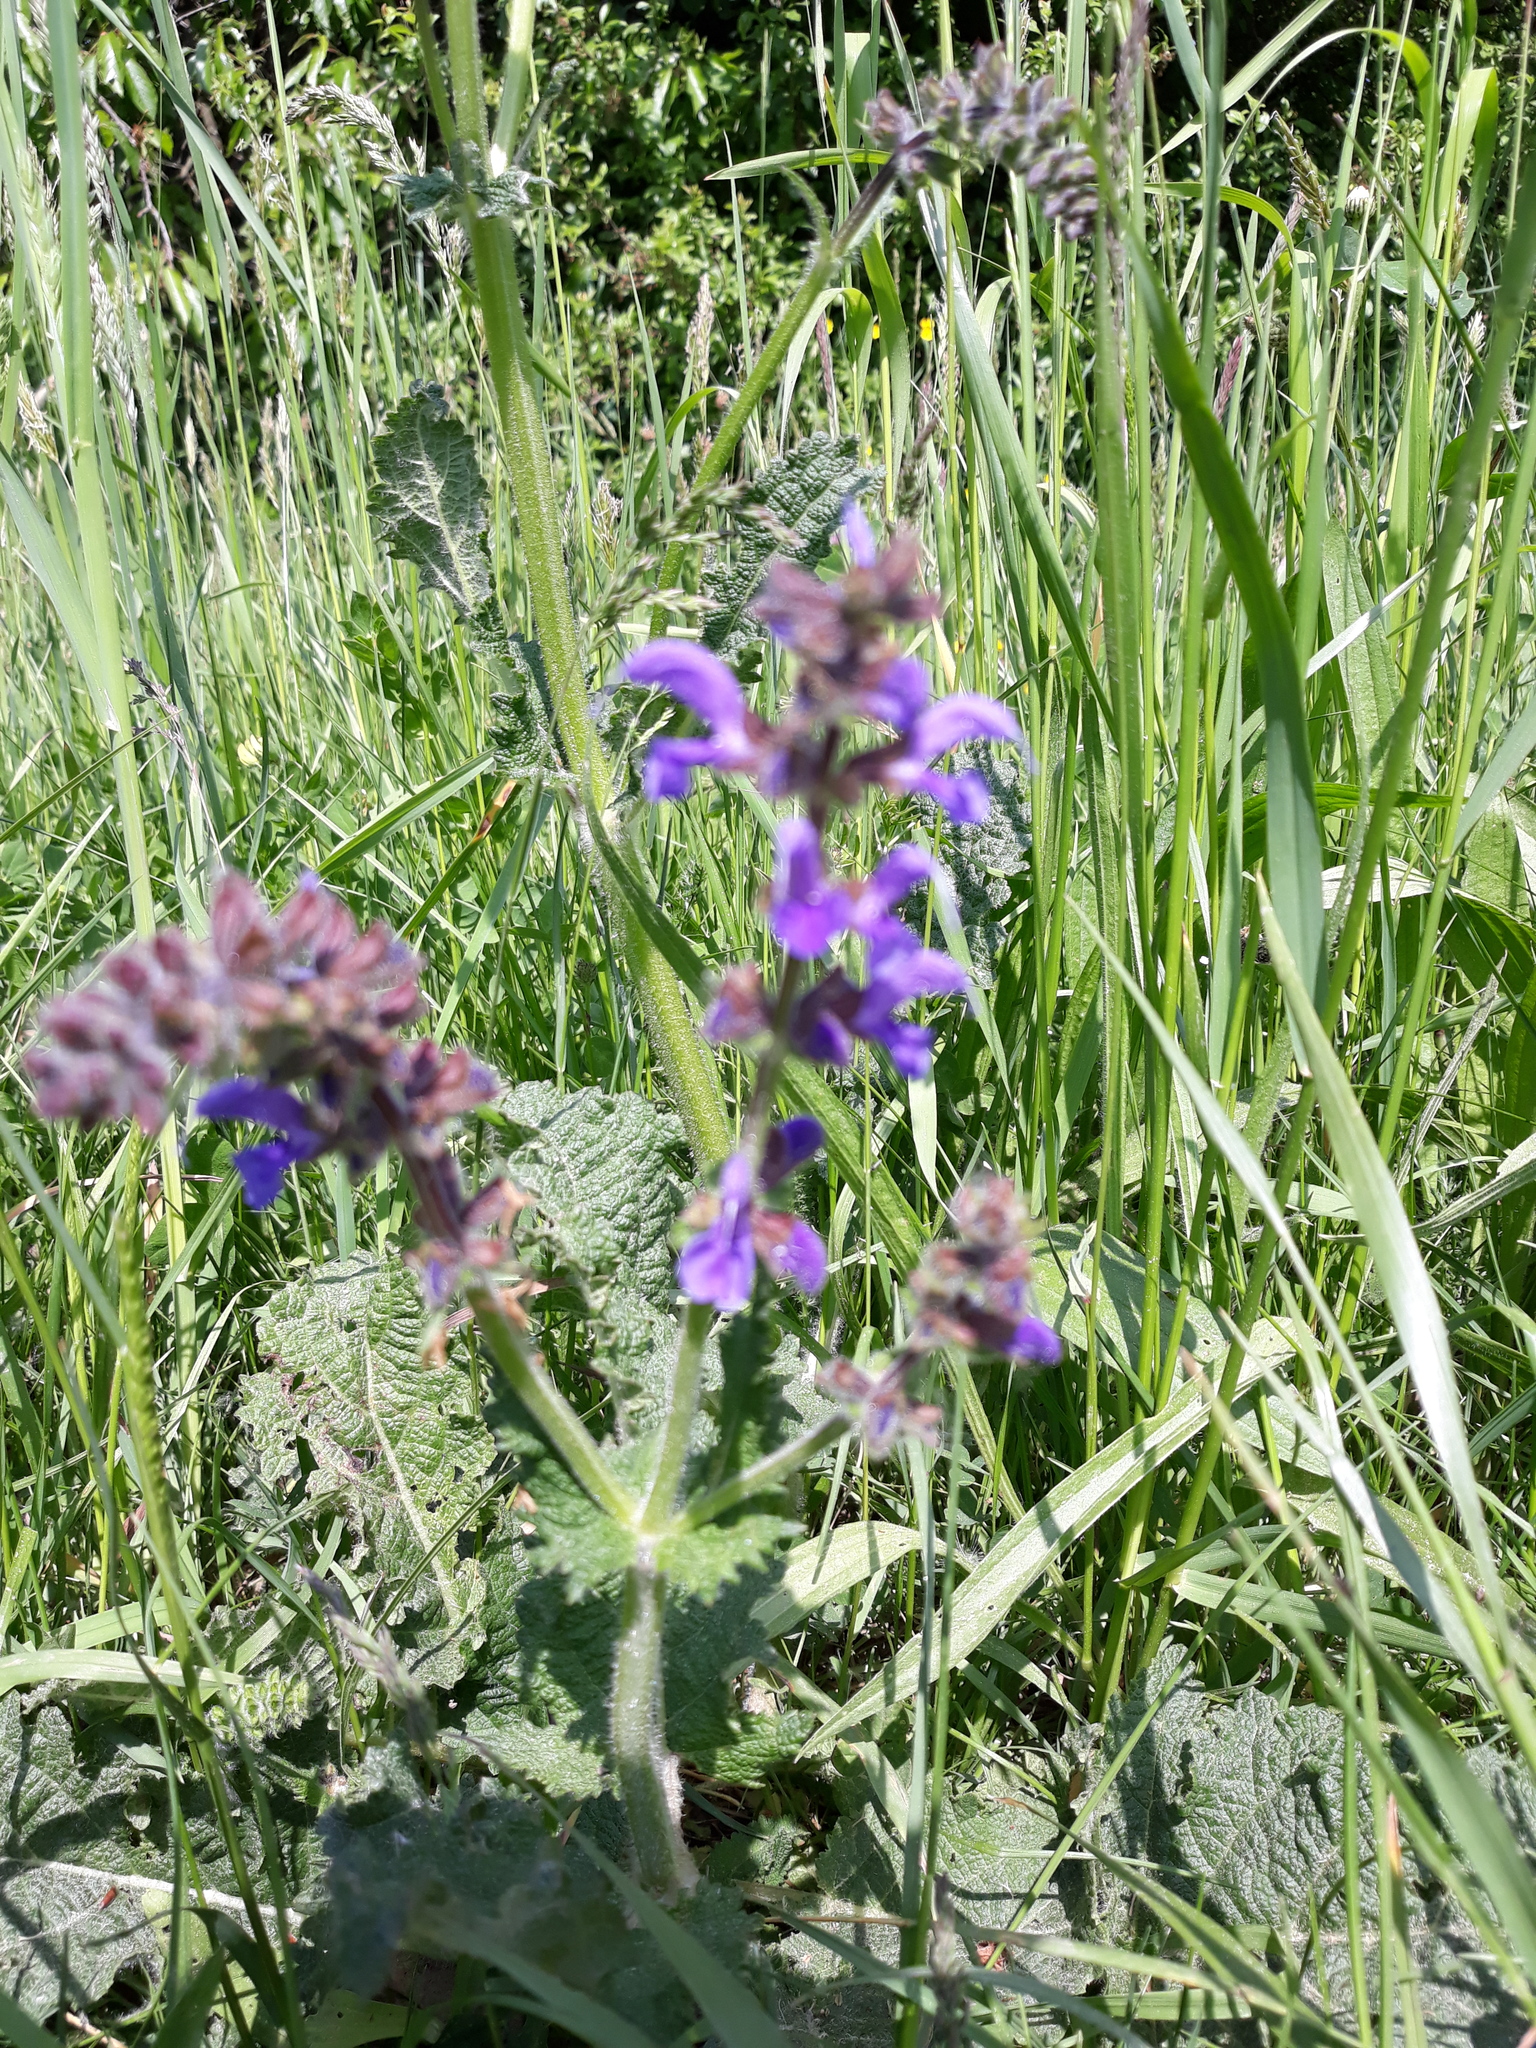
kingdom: Plantae
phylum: Tracheophyta
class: Magnoliopsida
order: Lamiales
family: Lamiaceae
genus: Salvia
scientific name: Salvia pratensis
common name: Meadow sage
